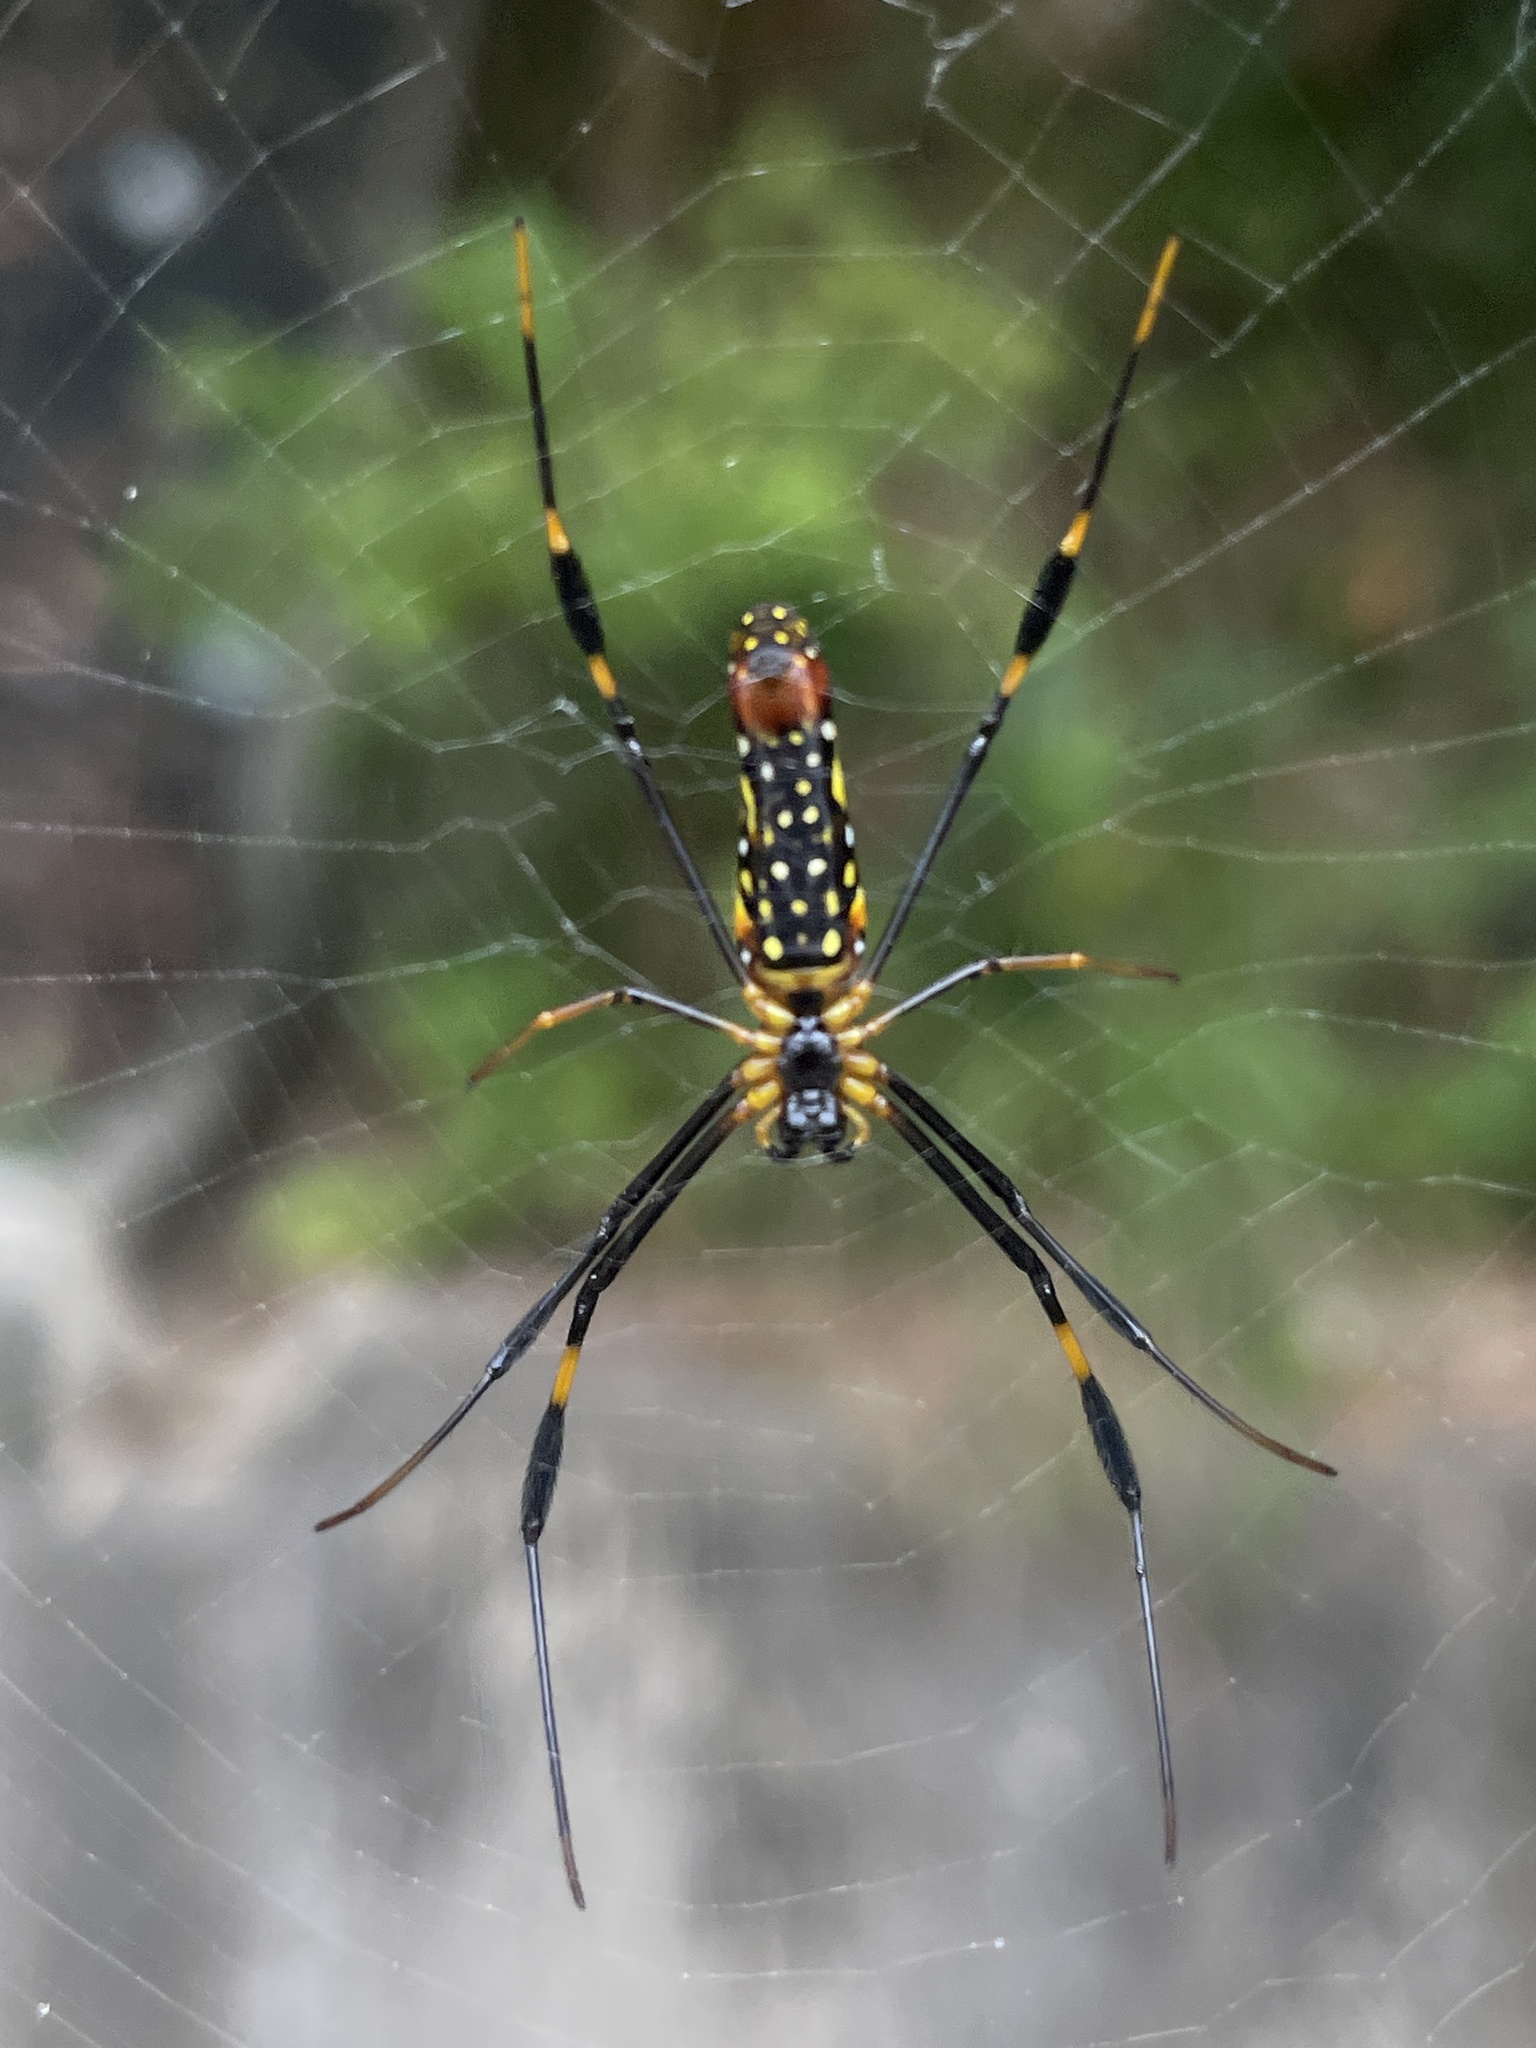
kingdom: Animalia
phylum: Arthropoda
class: Arachnida
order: Araneae
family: Araneidae
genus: Nephila
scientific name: Nephila pilipes
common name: Giant golden orb weaver
